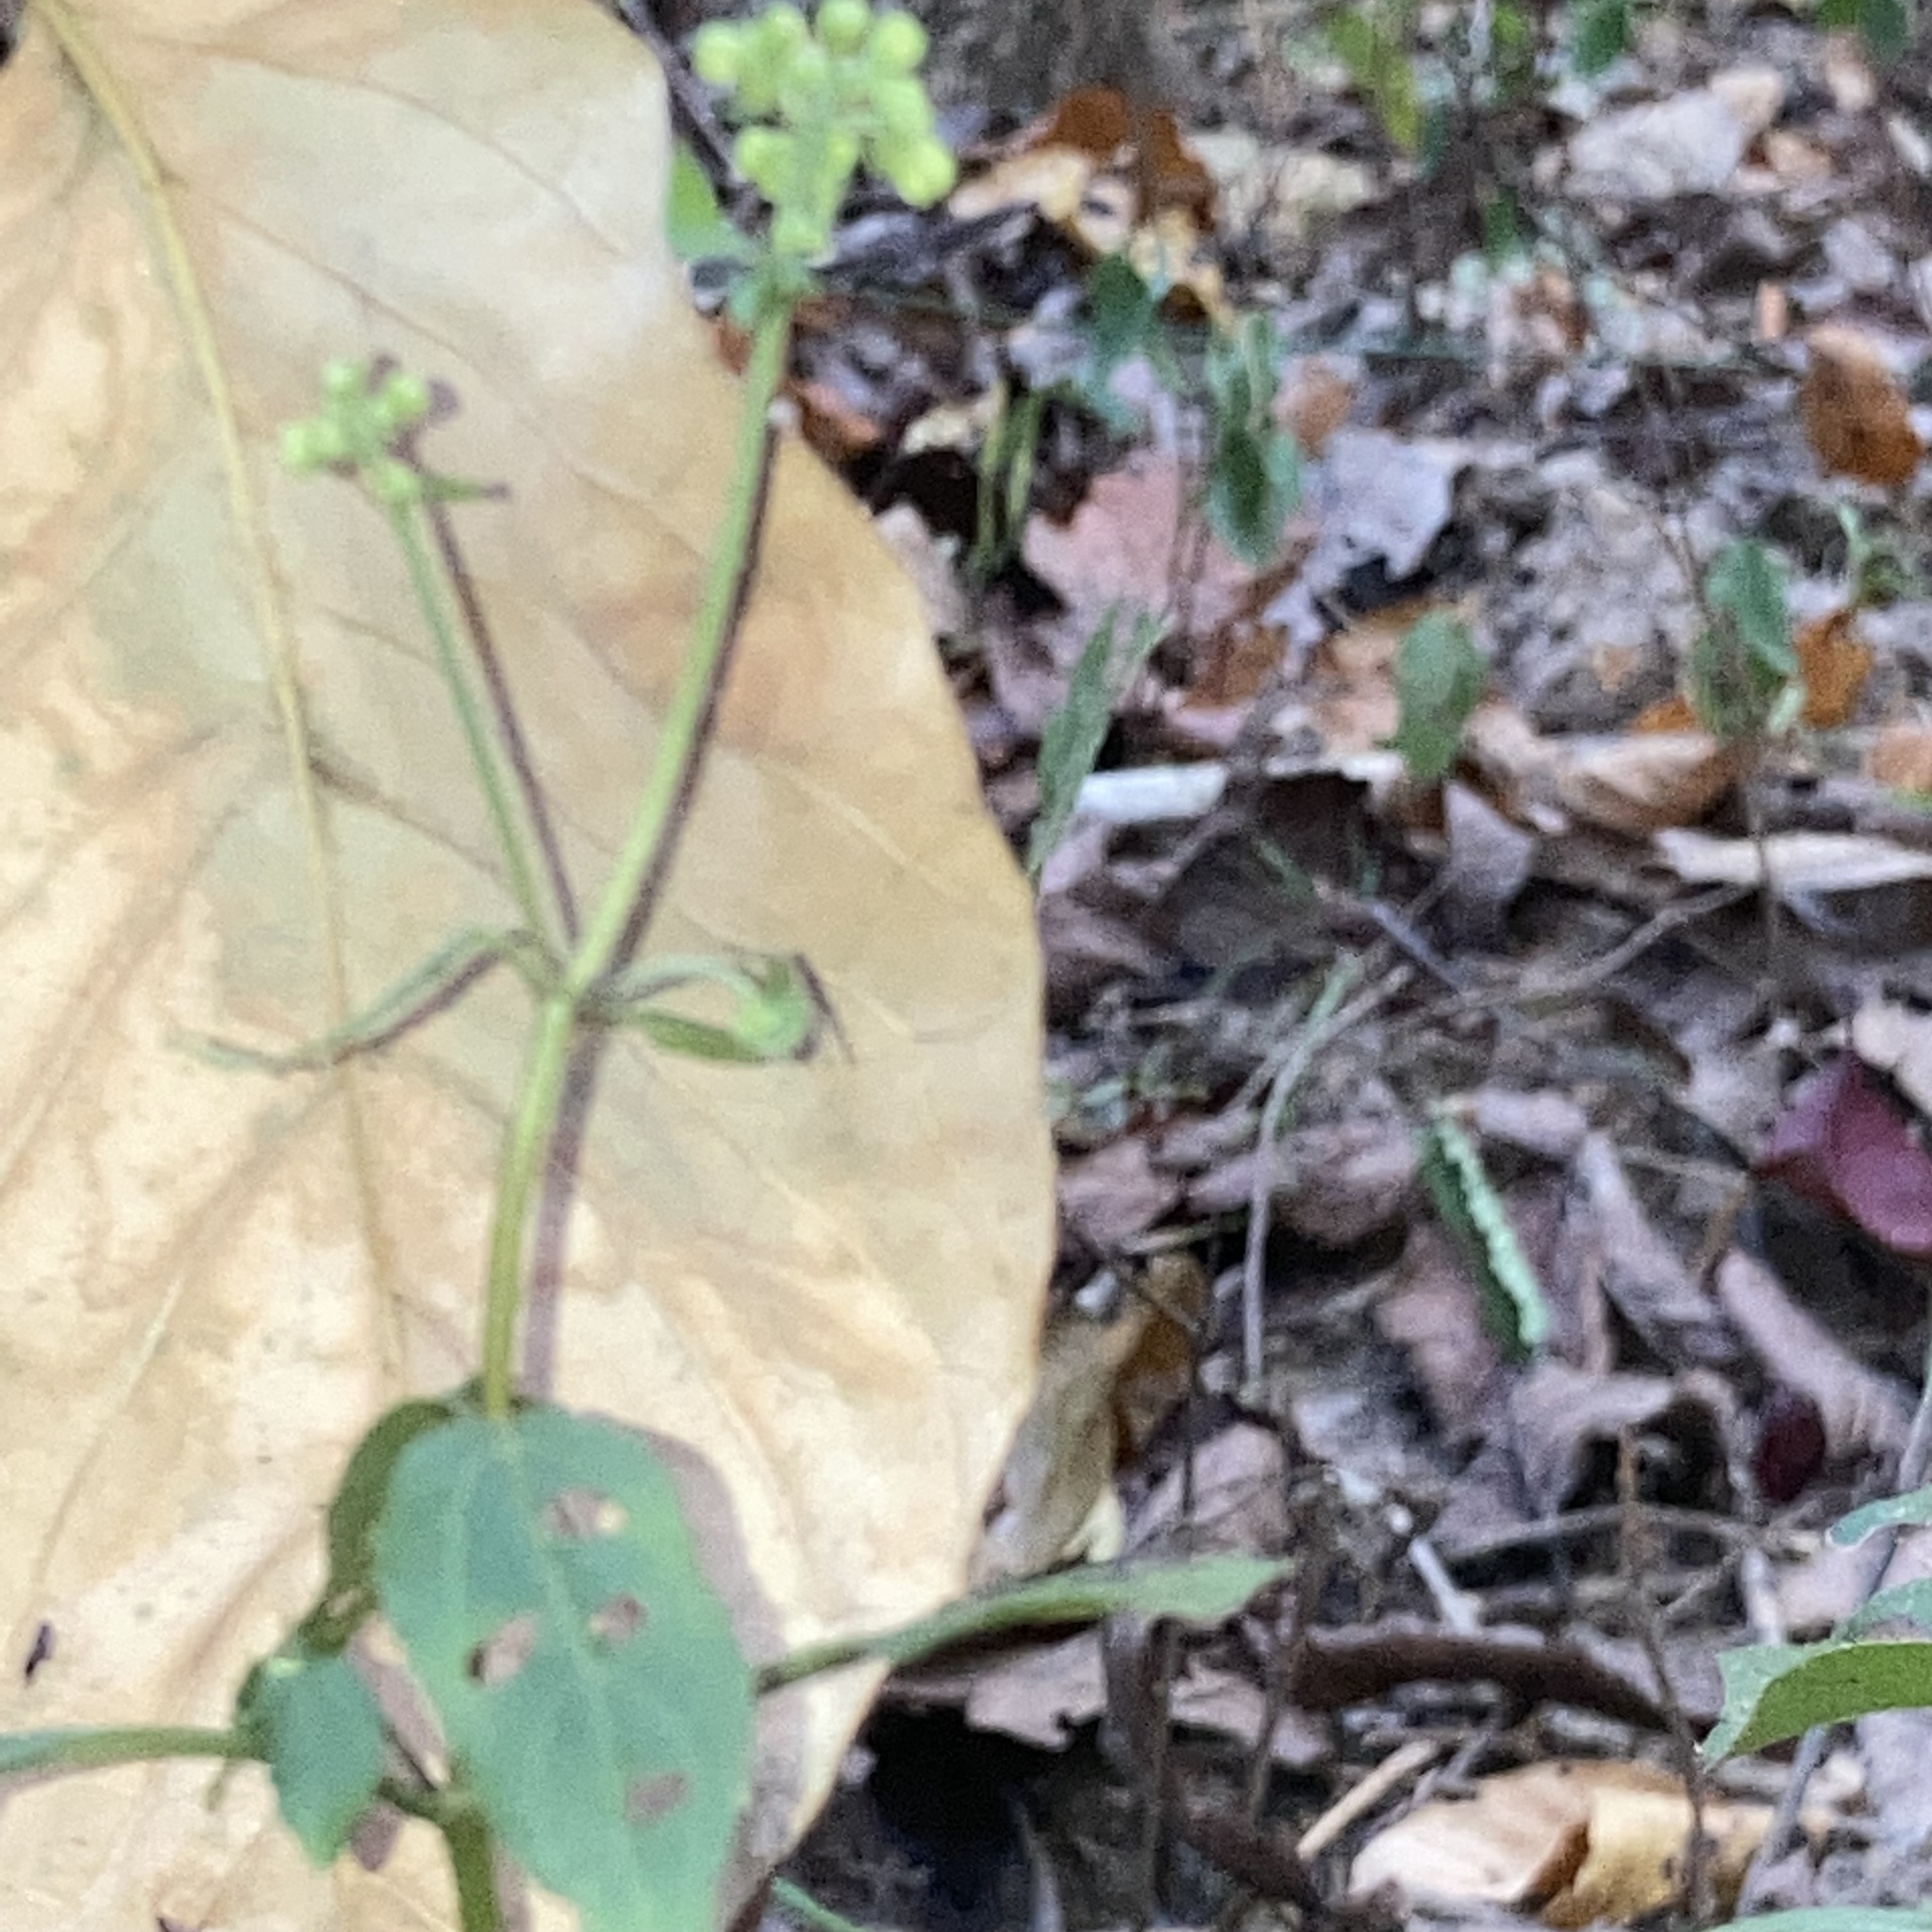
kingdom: Plantae
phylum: Tracheophyta
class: Magnoliopsida
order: Asterales
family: Asteraceae
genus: Ageratina
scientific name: Ageratina altissima
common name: White snakeroot
